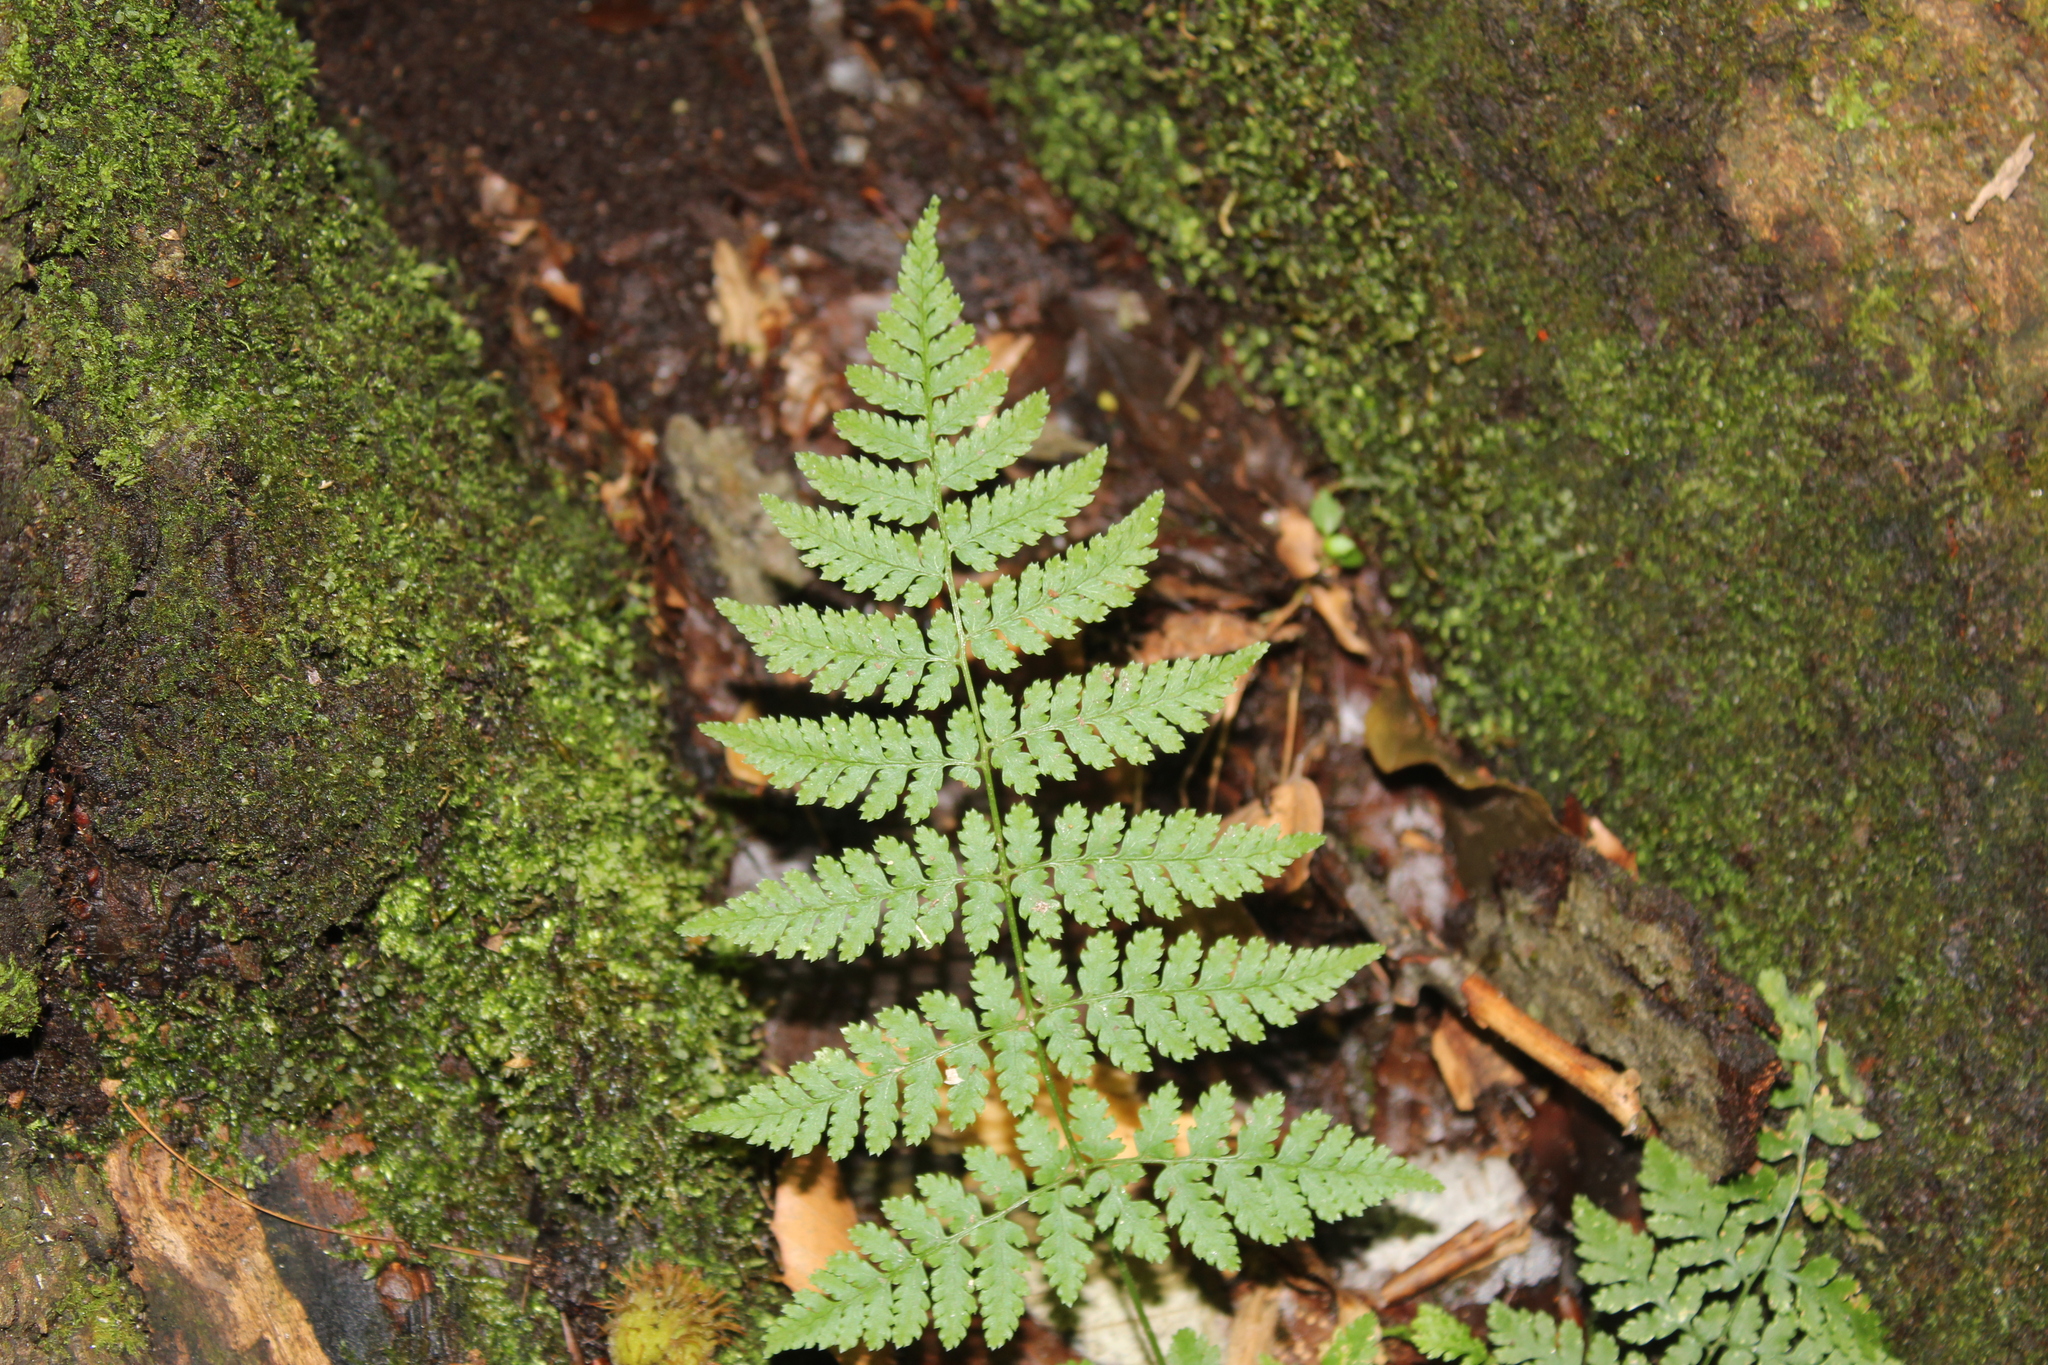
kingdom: Plantae
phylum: Tracheophyta
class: Polypodiopsida
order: Polypodiales
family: Dryopteridaceae
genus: Dryopteris
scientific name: Dryopteris intermedia
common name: Evergreen wood fern
